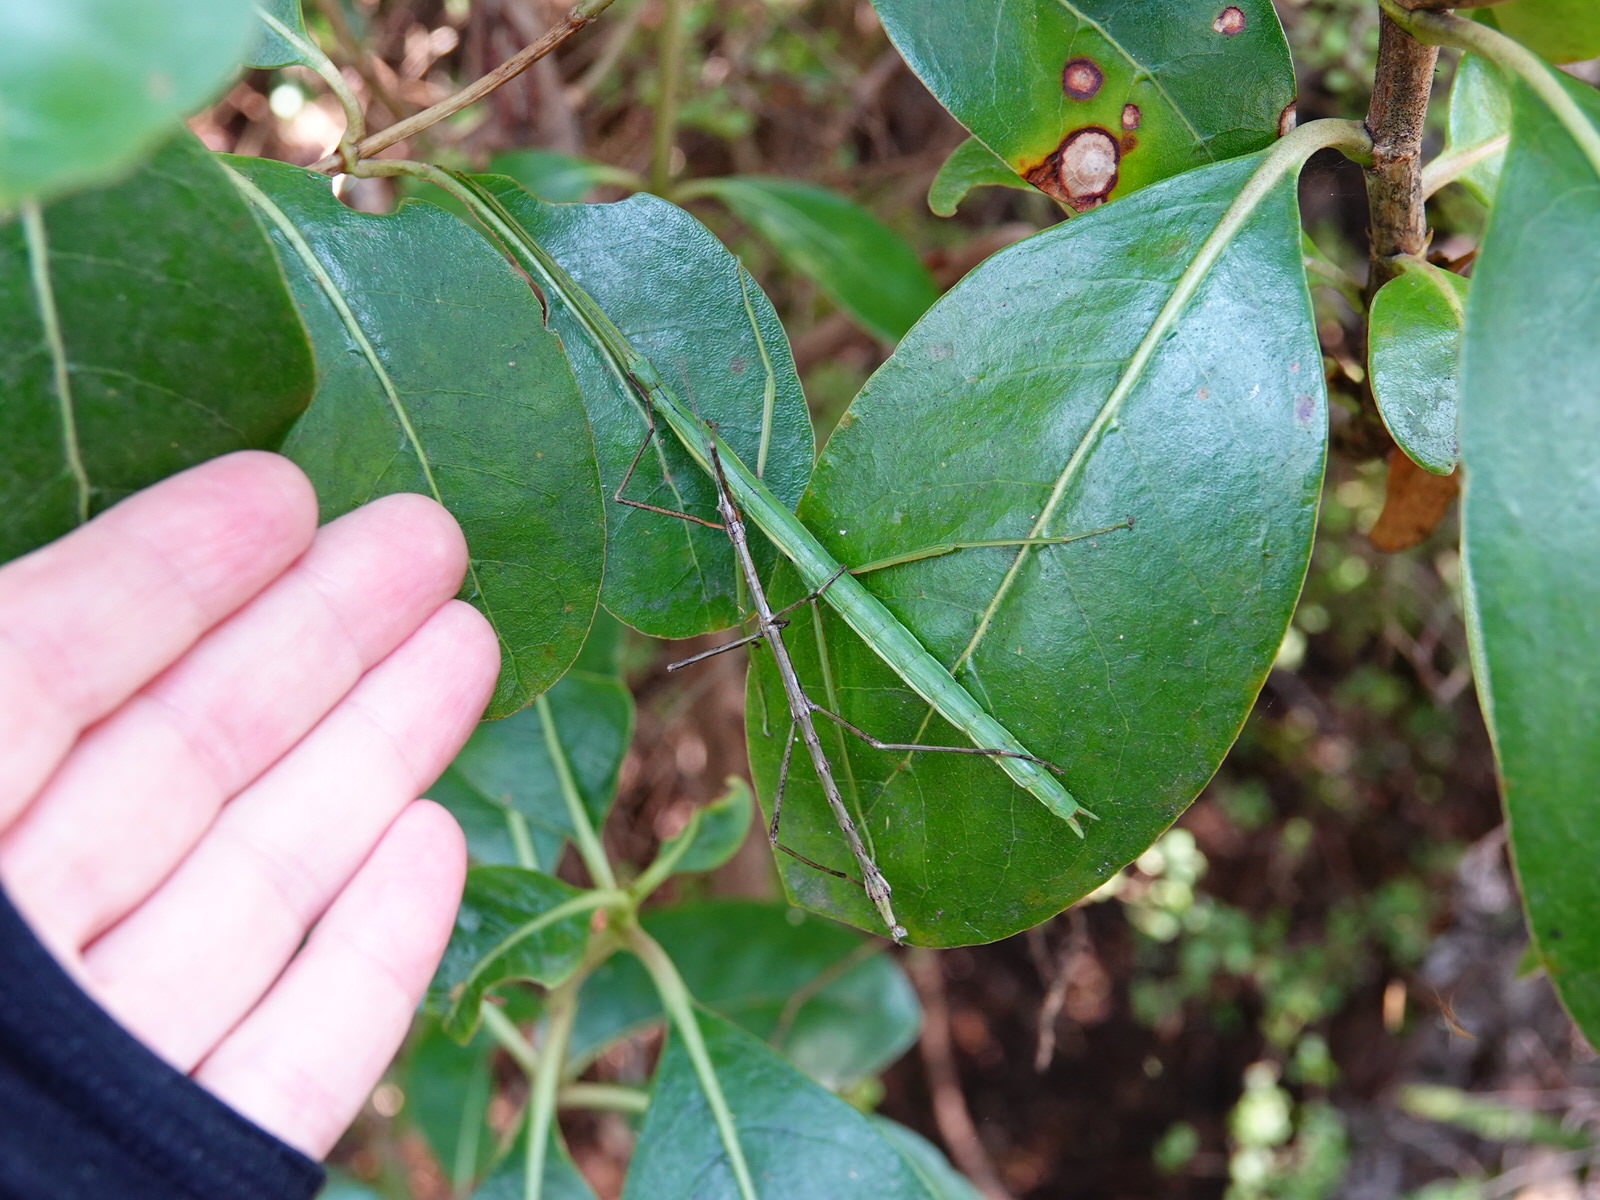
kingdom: Animalia
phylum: Arthropoda
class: Insecta
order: Phasmida
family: Phasmatidae
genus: Clitarchus
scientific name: Clitarchus hookeri
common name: Smooth stick insect
